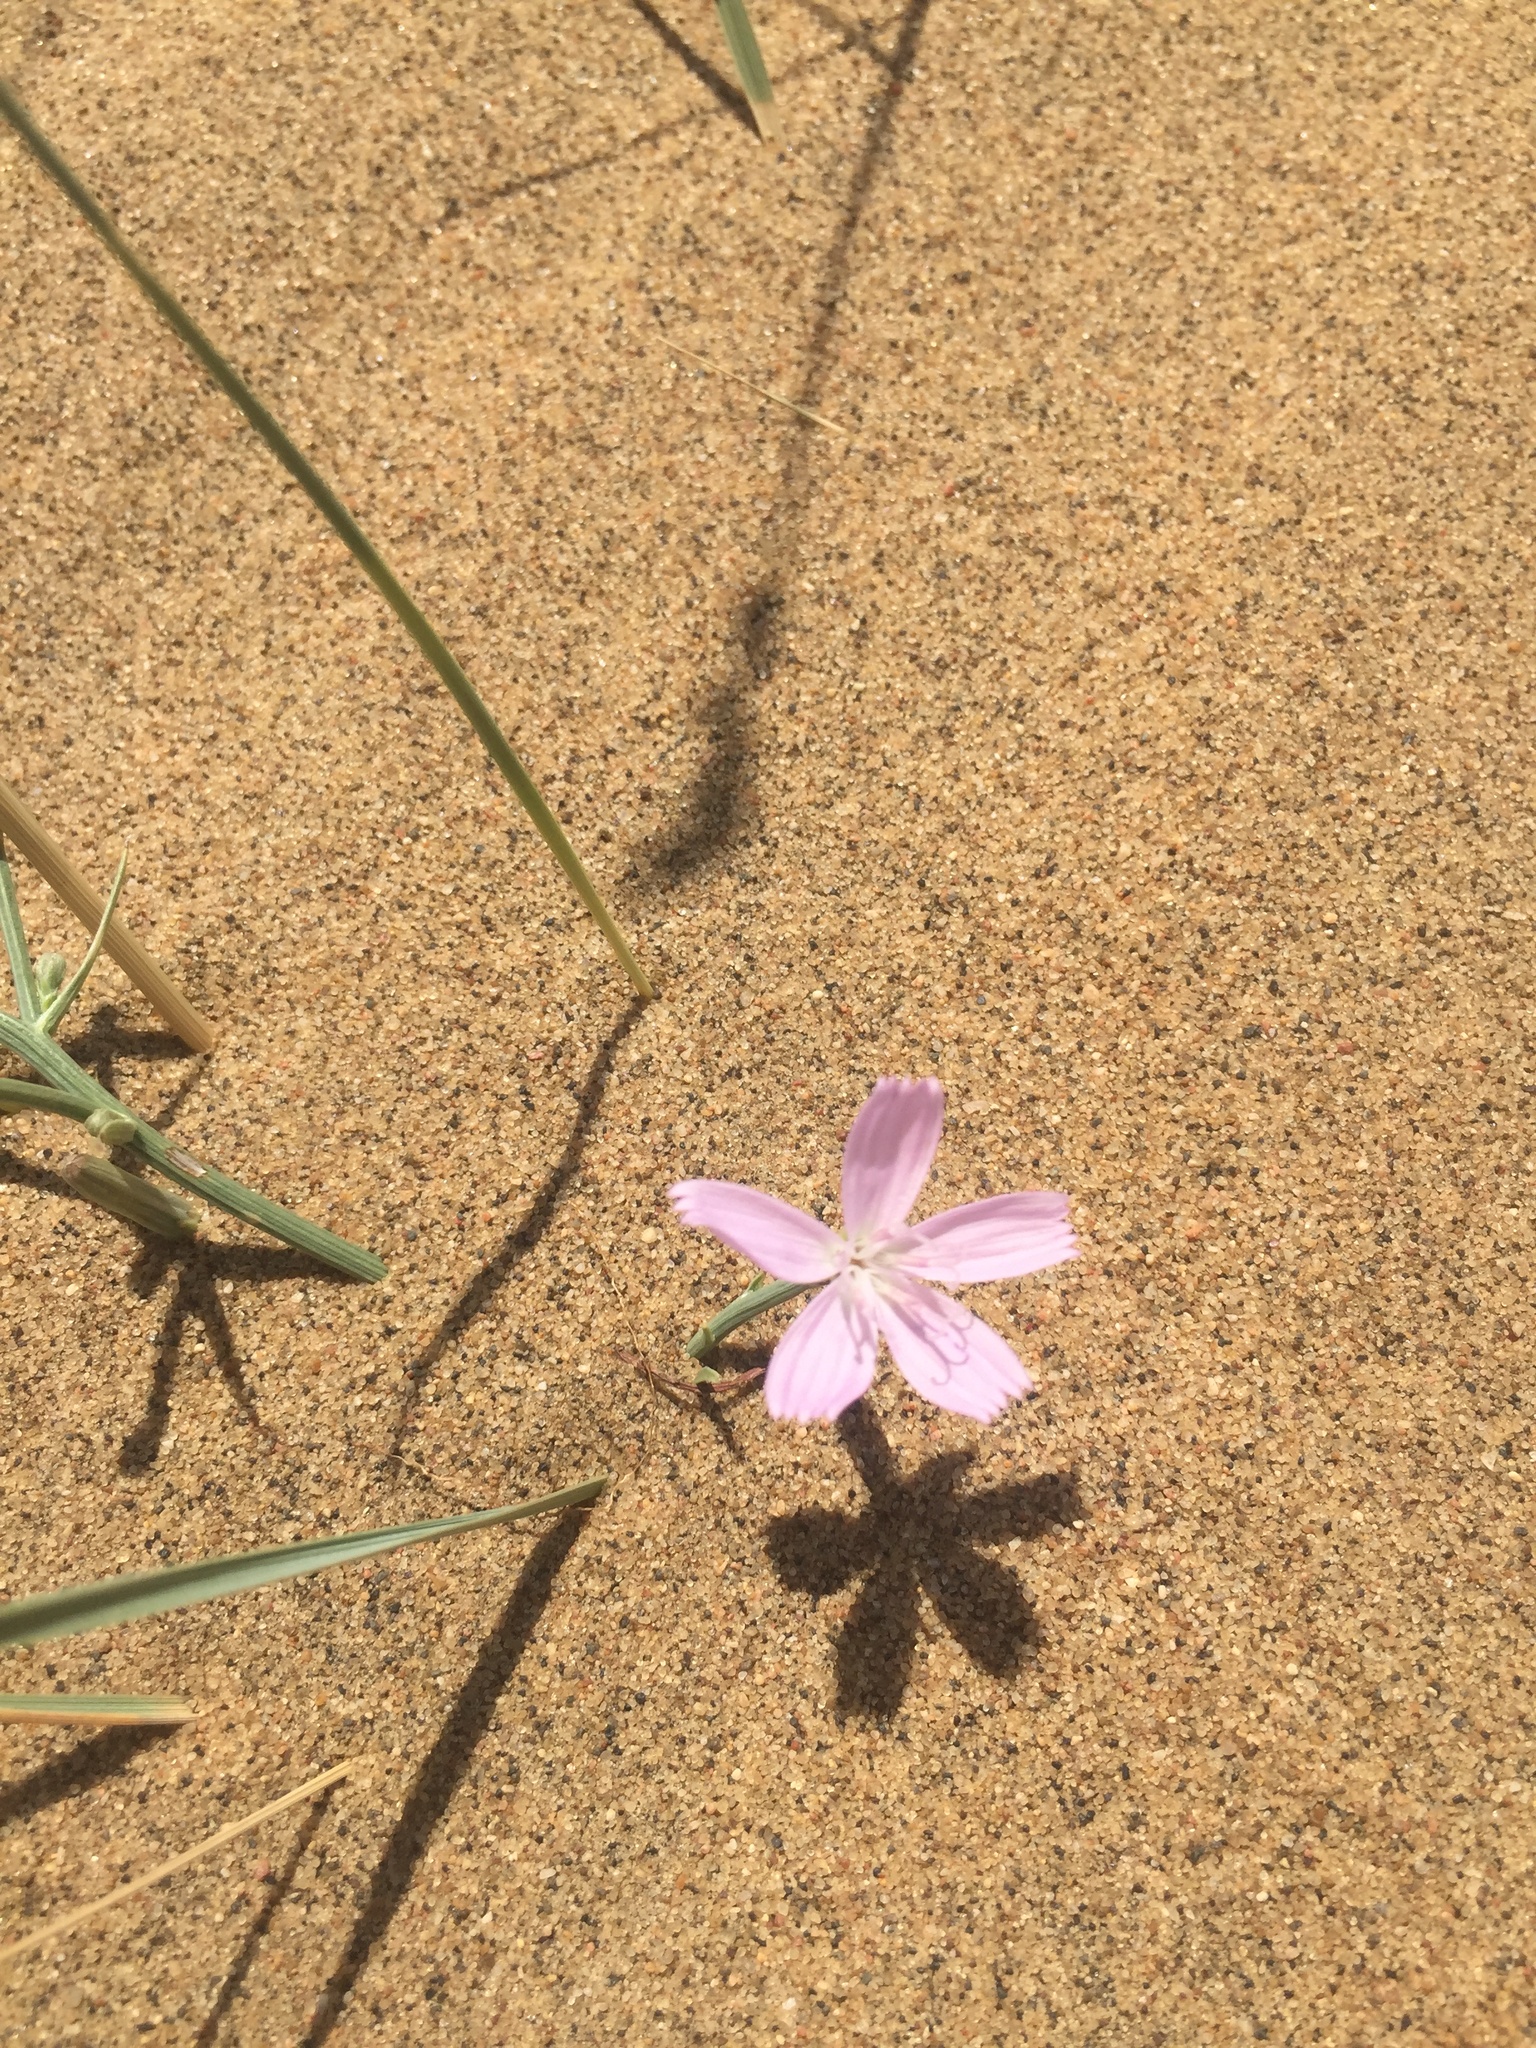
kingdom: Plantae
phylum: Tracheophyta
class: Magnoliopsida
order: Asterales
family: Asteraceae
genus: Lygodesmia
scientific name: Lygodesmia juncea
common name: Common skeletonweed
